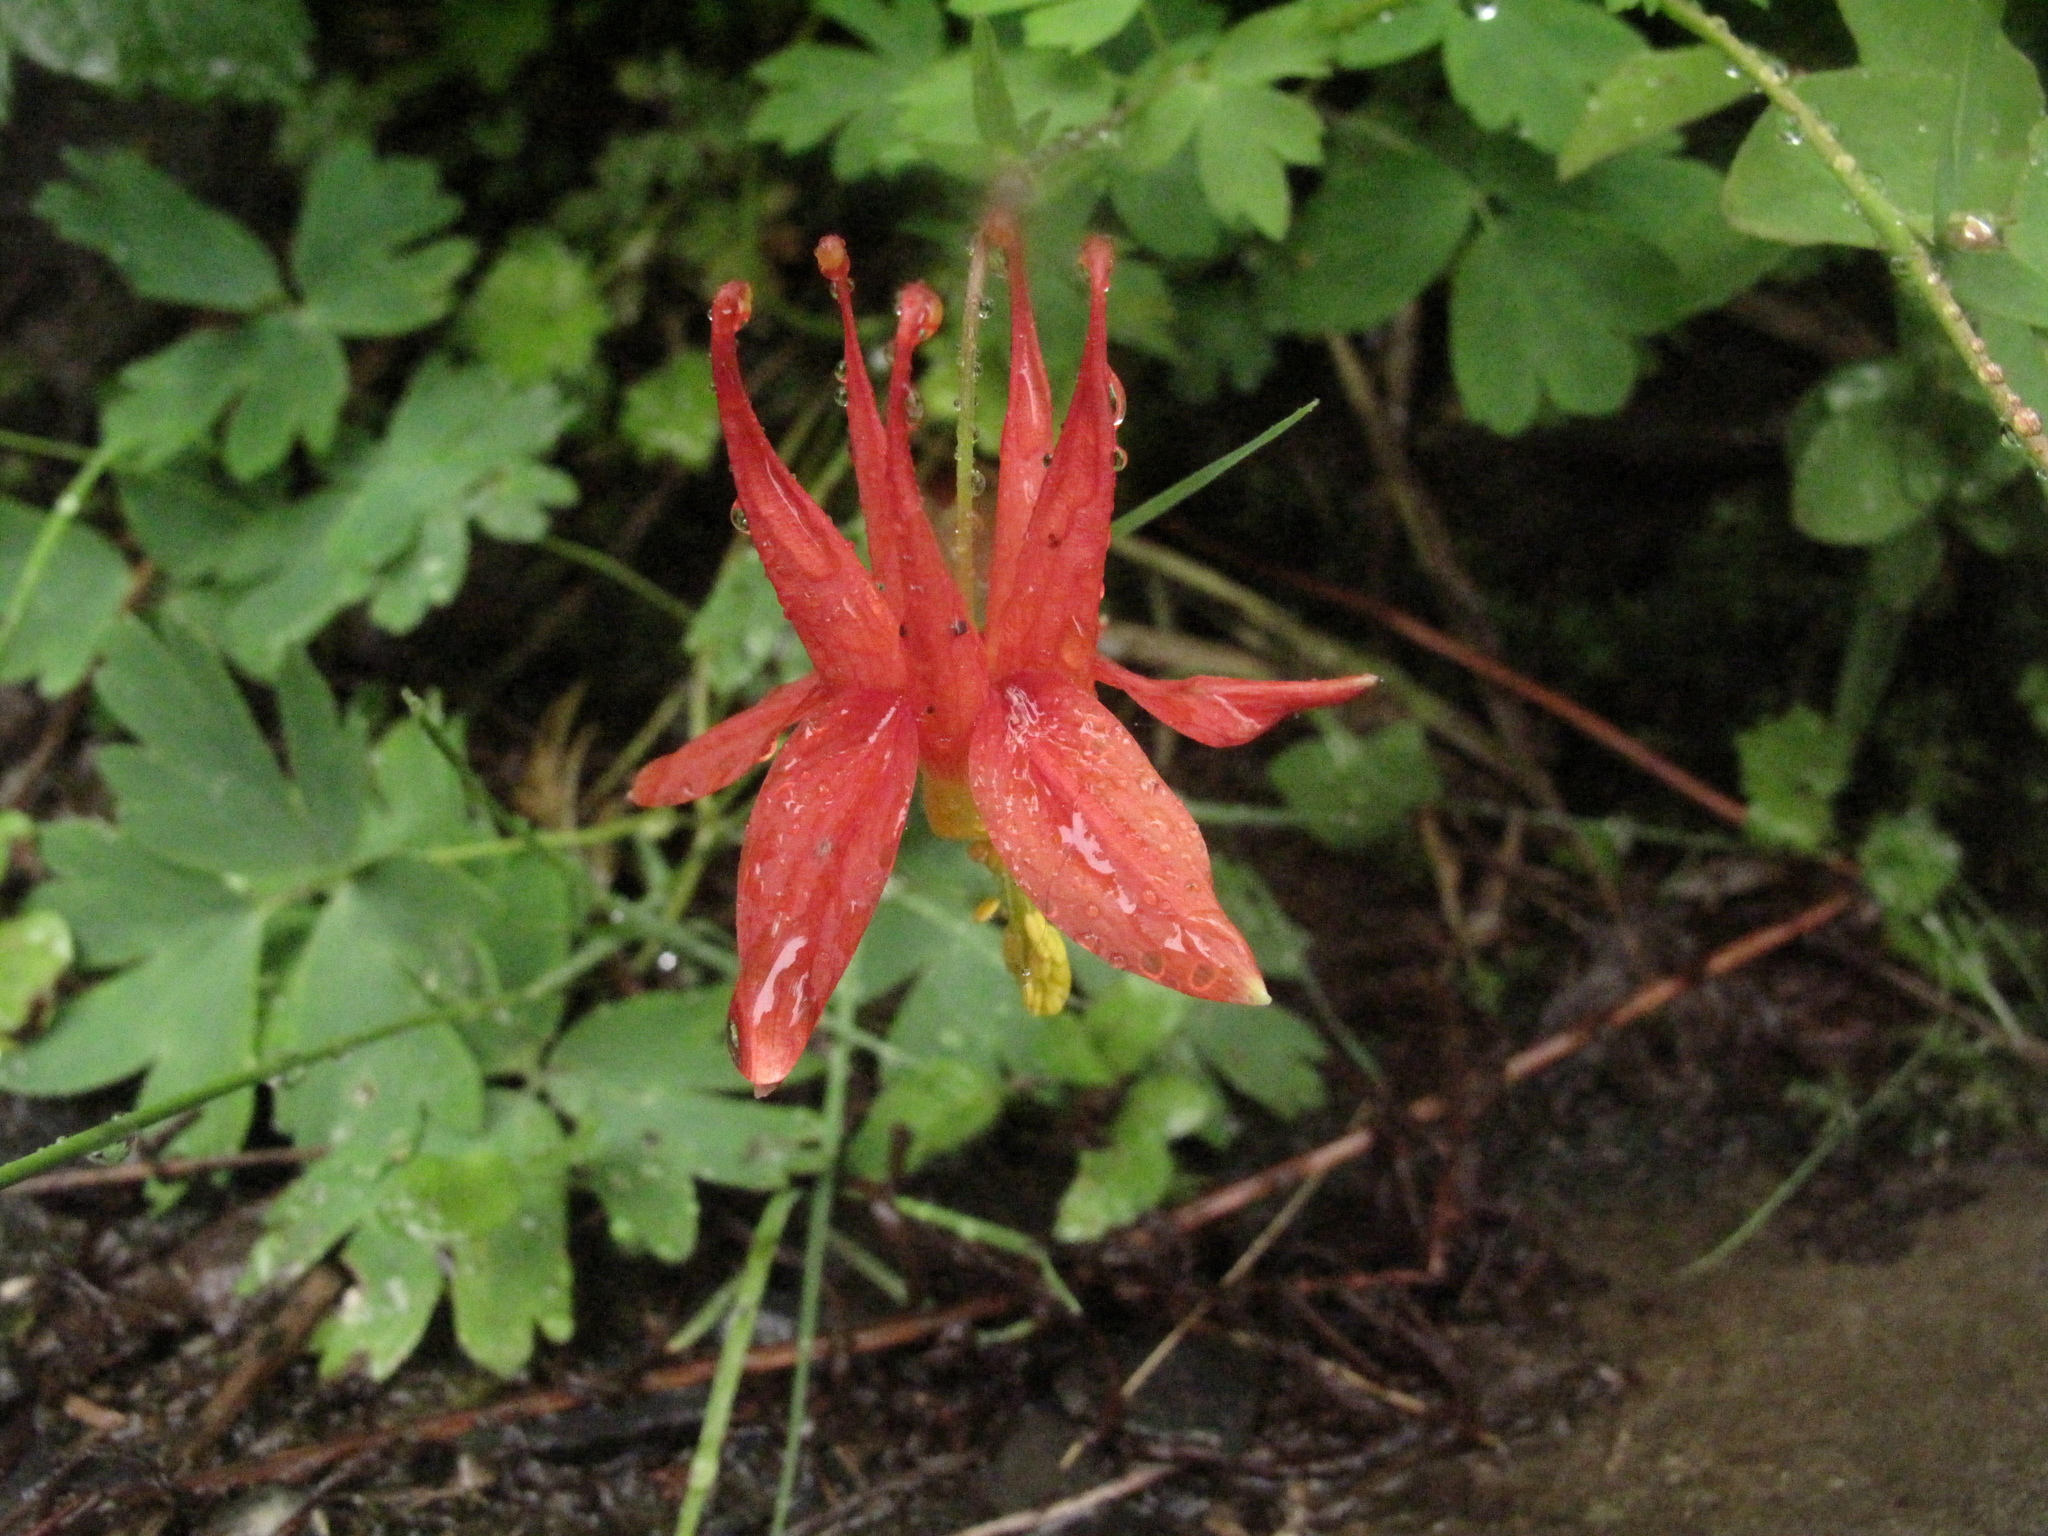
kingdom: Plantae
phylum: Tracheophyta
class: Magnoliopsida
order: Ranunculales
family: Ranunculaceae
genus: Aquilegia
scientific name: Aquilegia formosa
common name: Sitka columbine
